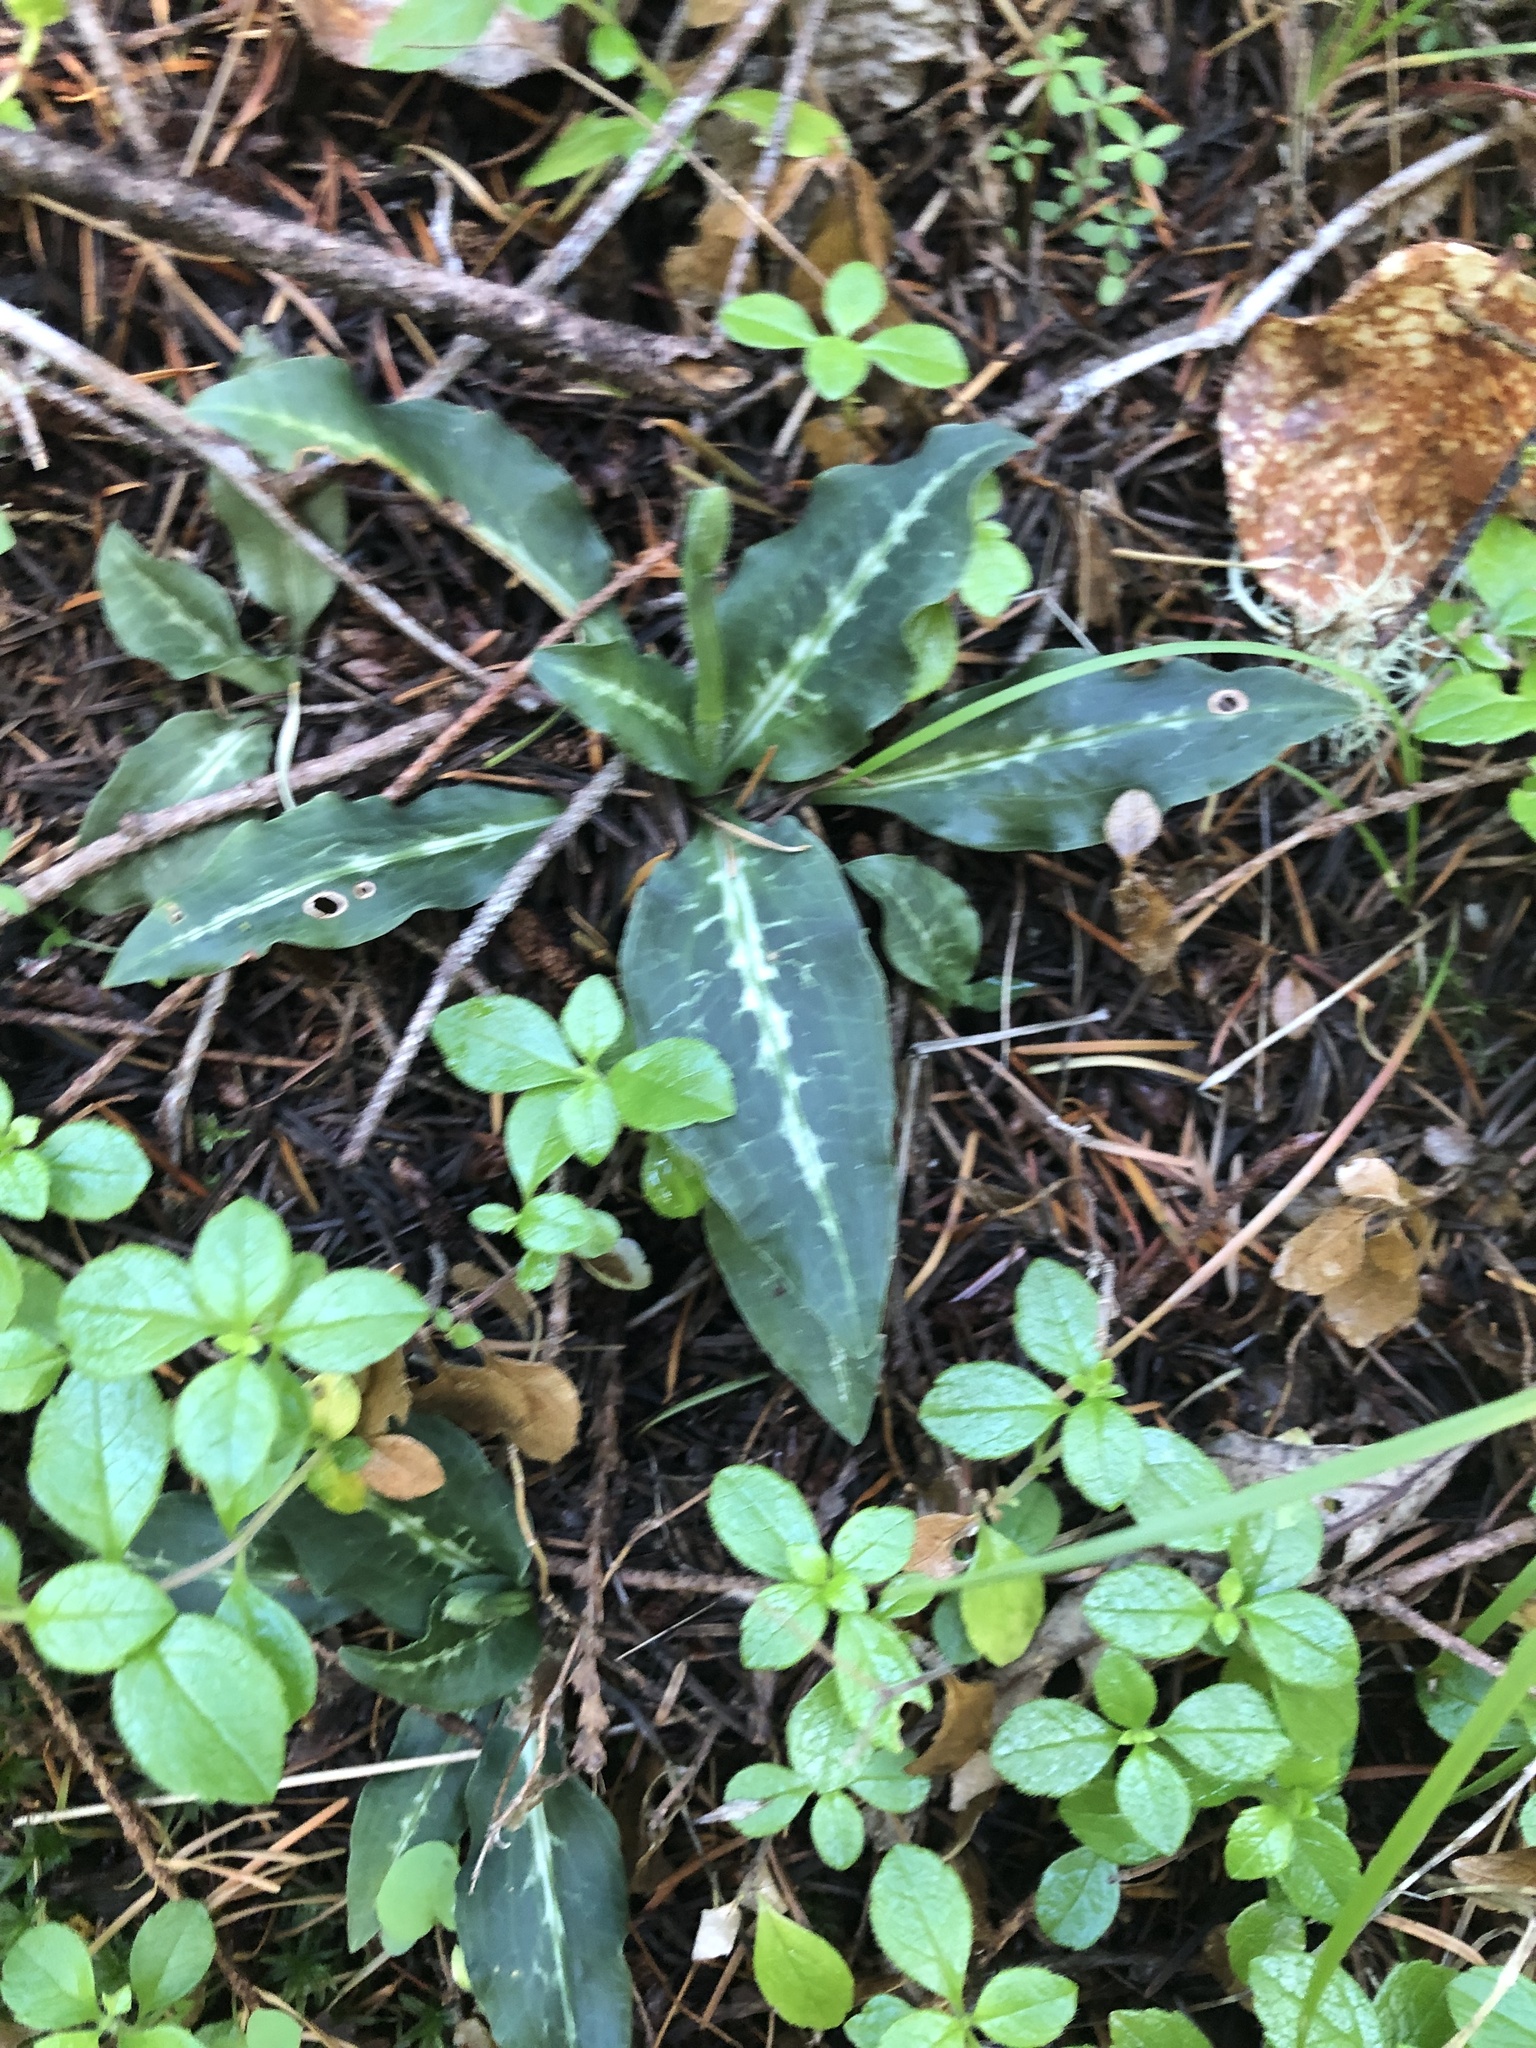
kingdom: Plantae
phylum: Tracheophyta
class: Liliopsida
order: Asparagales
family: Orchidaceae
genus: Goodyera
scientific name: Goodyera oblongifolia
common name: Giant rattlesnake-plantain
